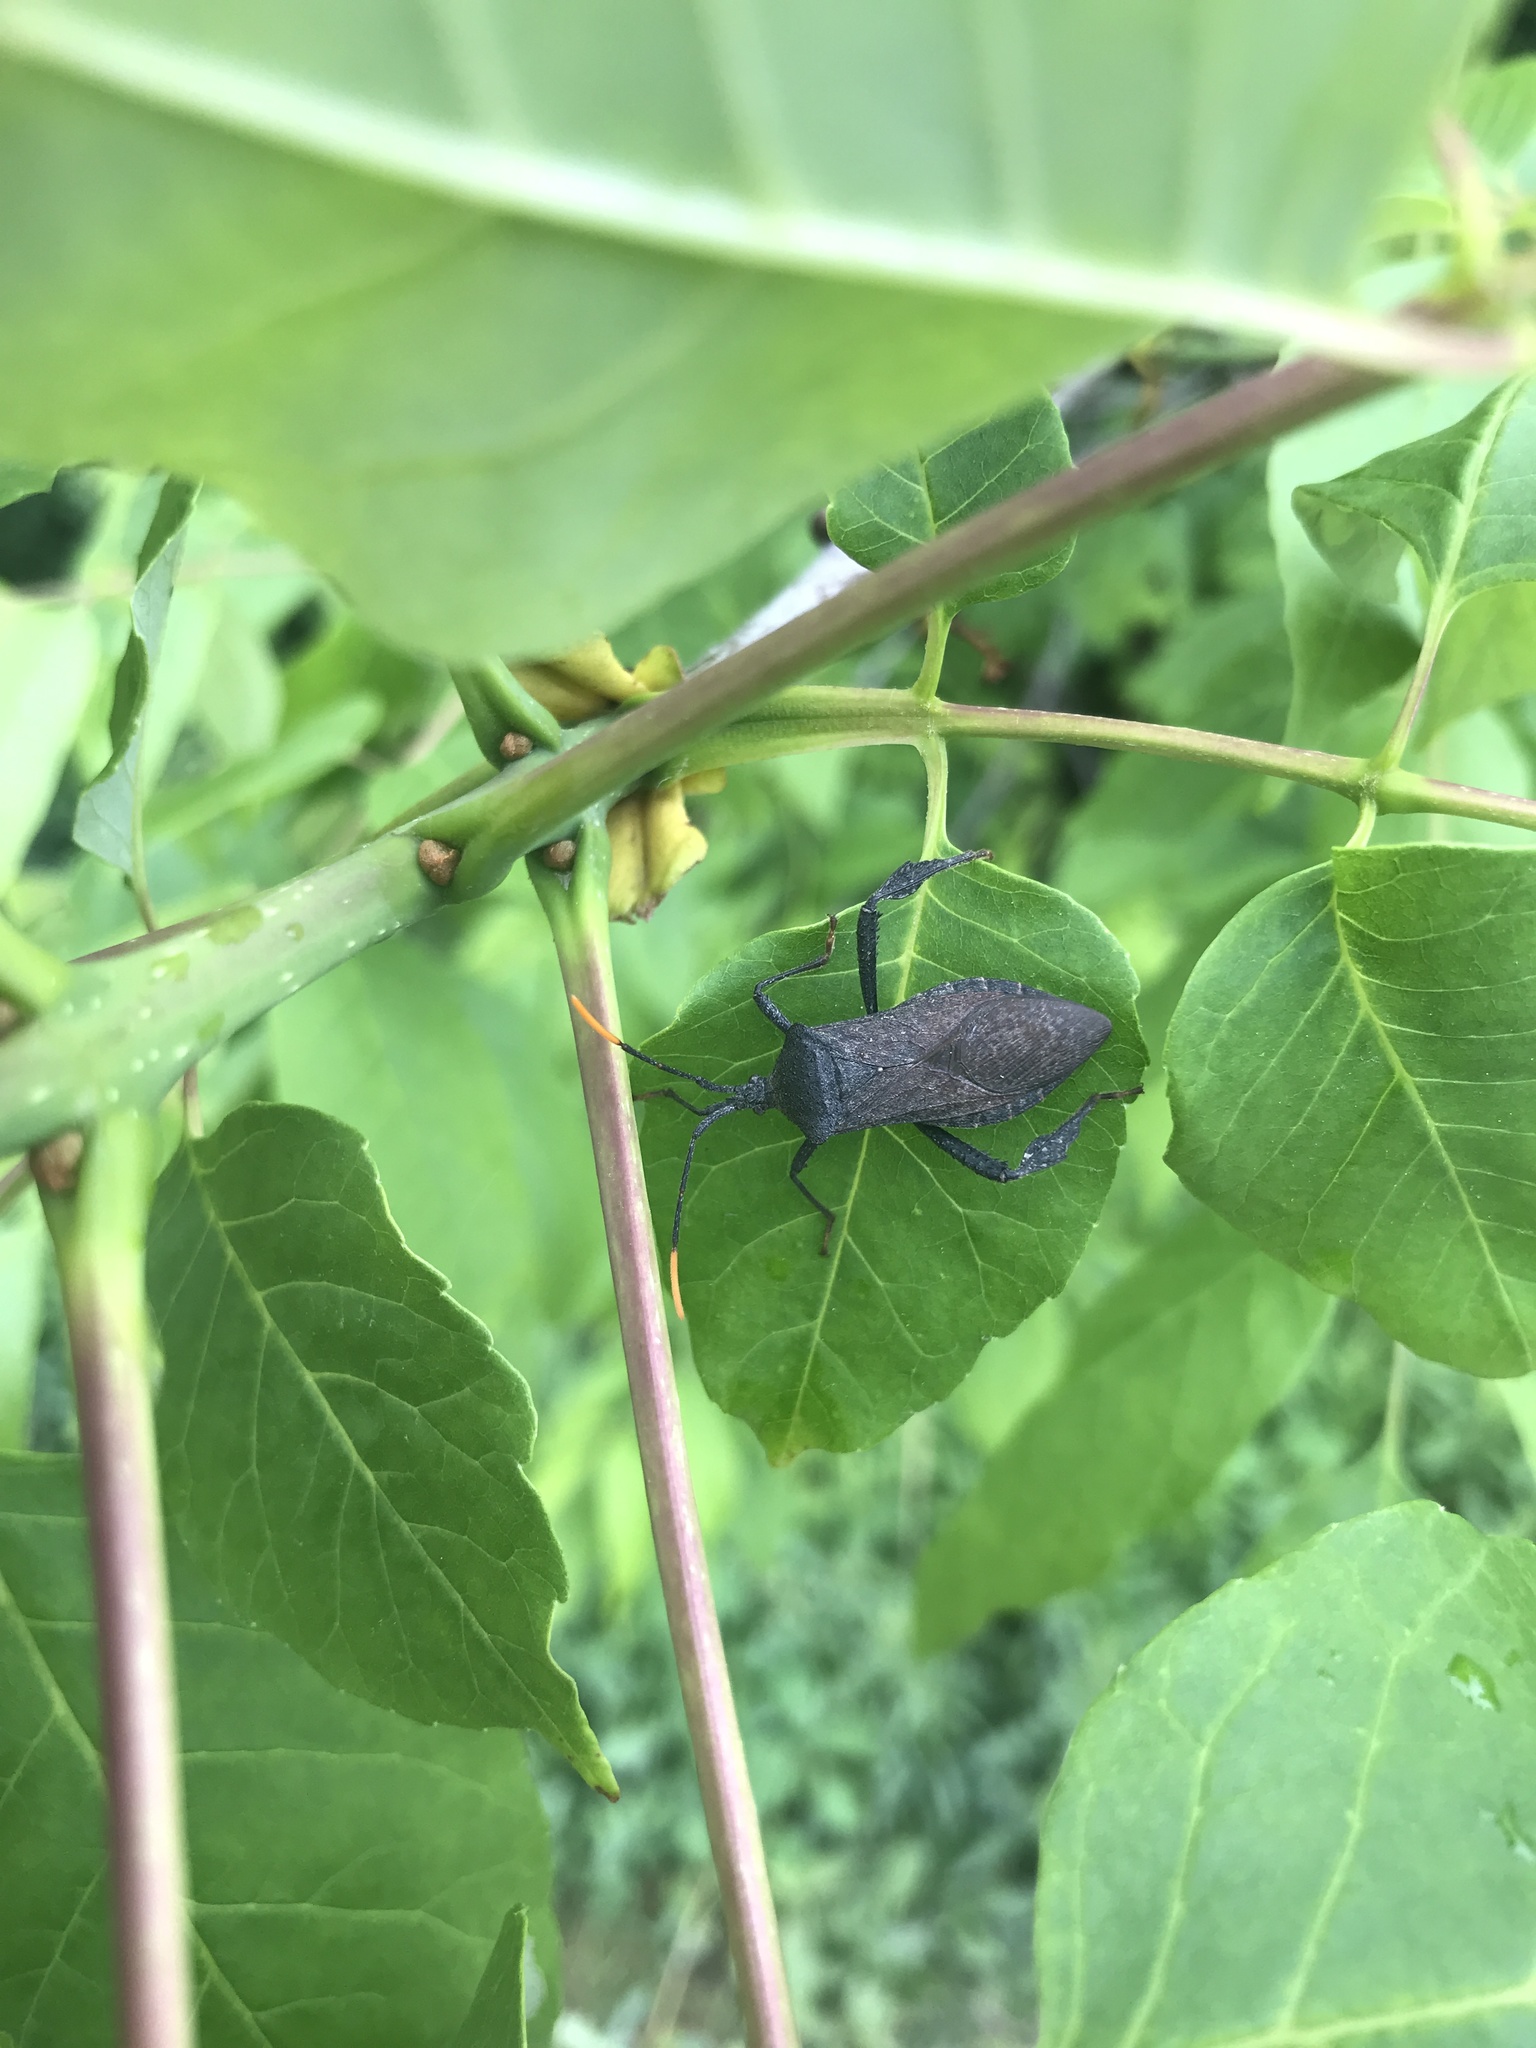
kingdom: Animalia
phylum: Arthropoda
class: Insecta
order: Hemiptera
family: Coreidae
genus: Acanthocephala
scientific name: Acanthocephala terminalis
